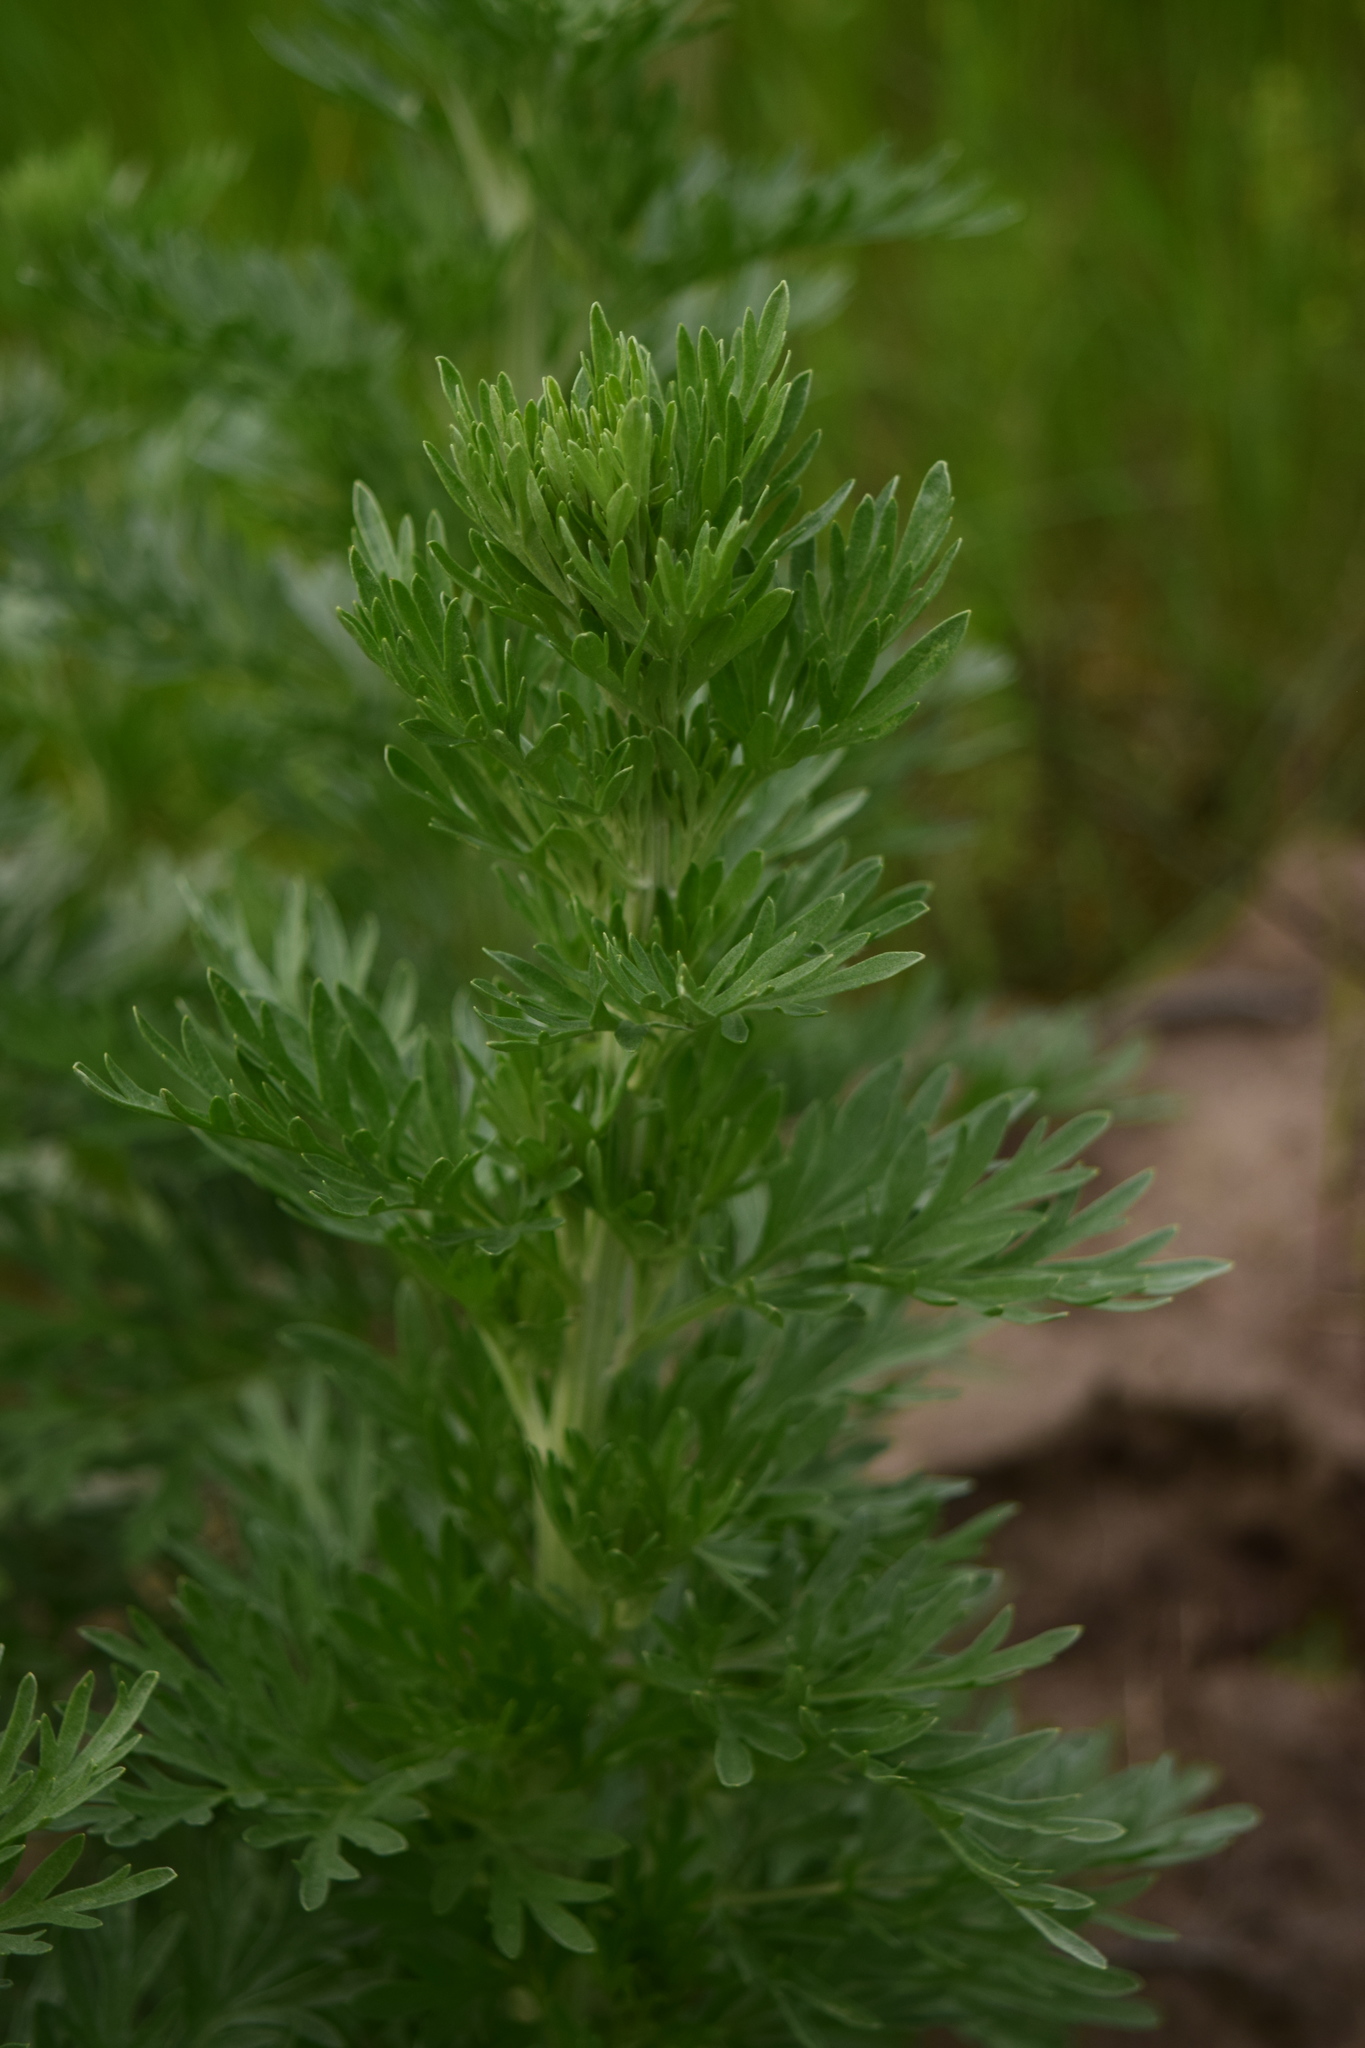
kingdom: Plantae
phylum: Tracheophyta
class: Magnoliopsida
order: Asterales
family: Asteraceae
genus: Artemisia
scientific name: Artemisia absinthium
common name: Wormwood
